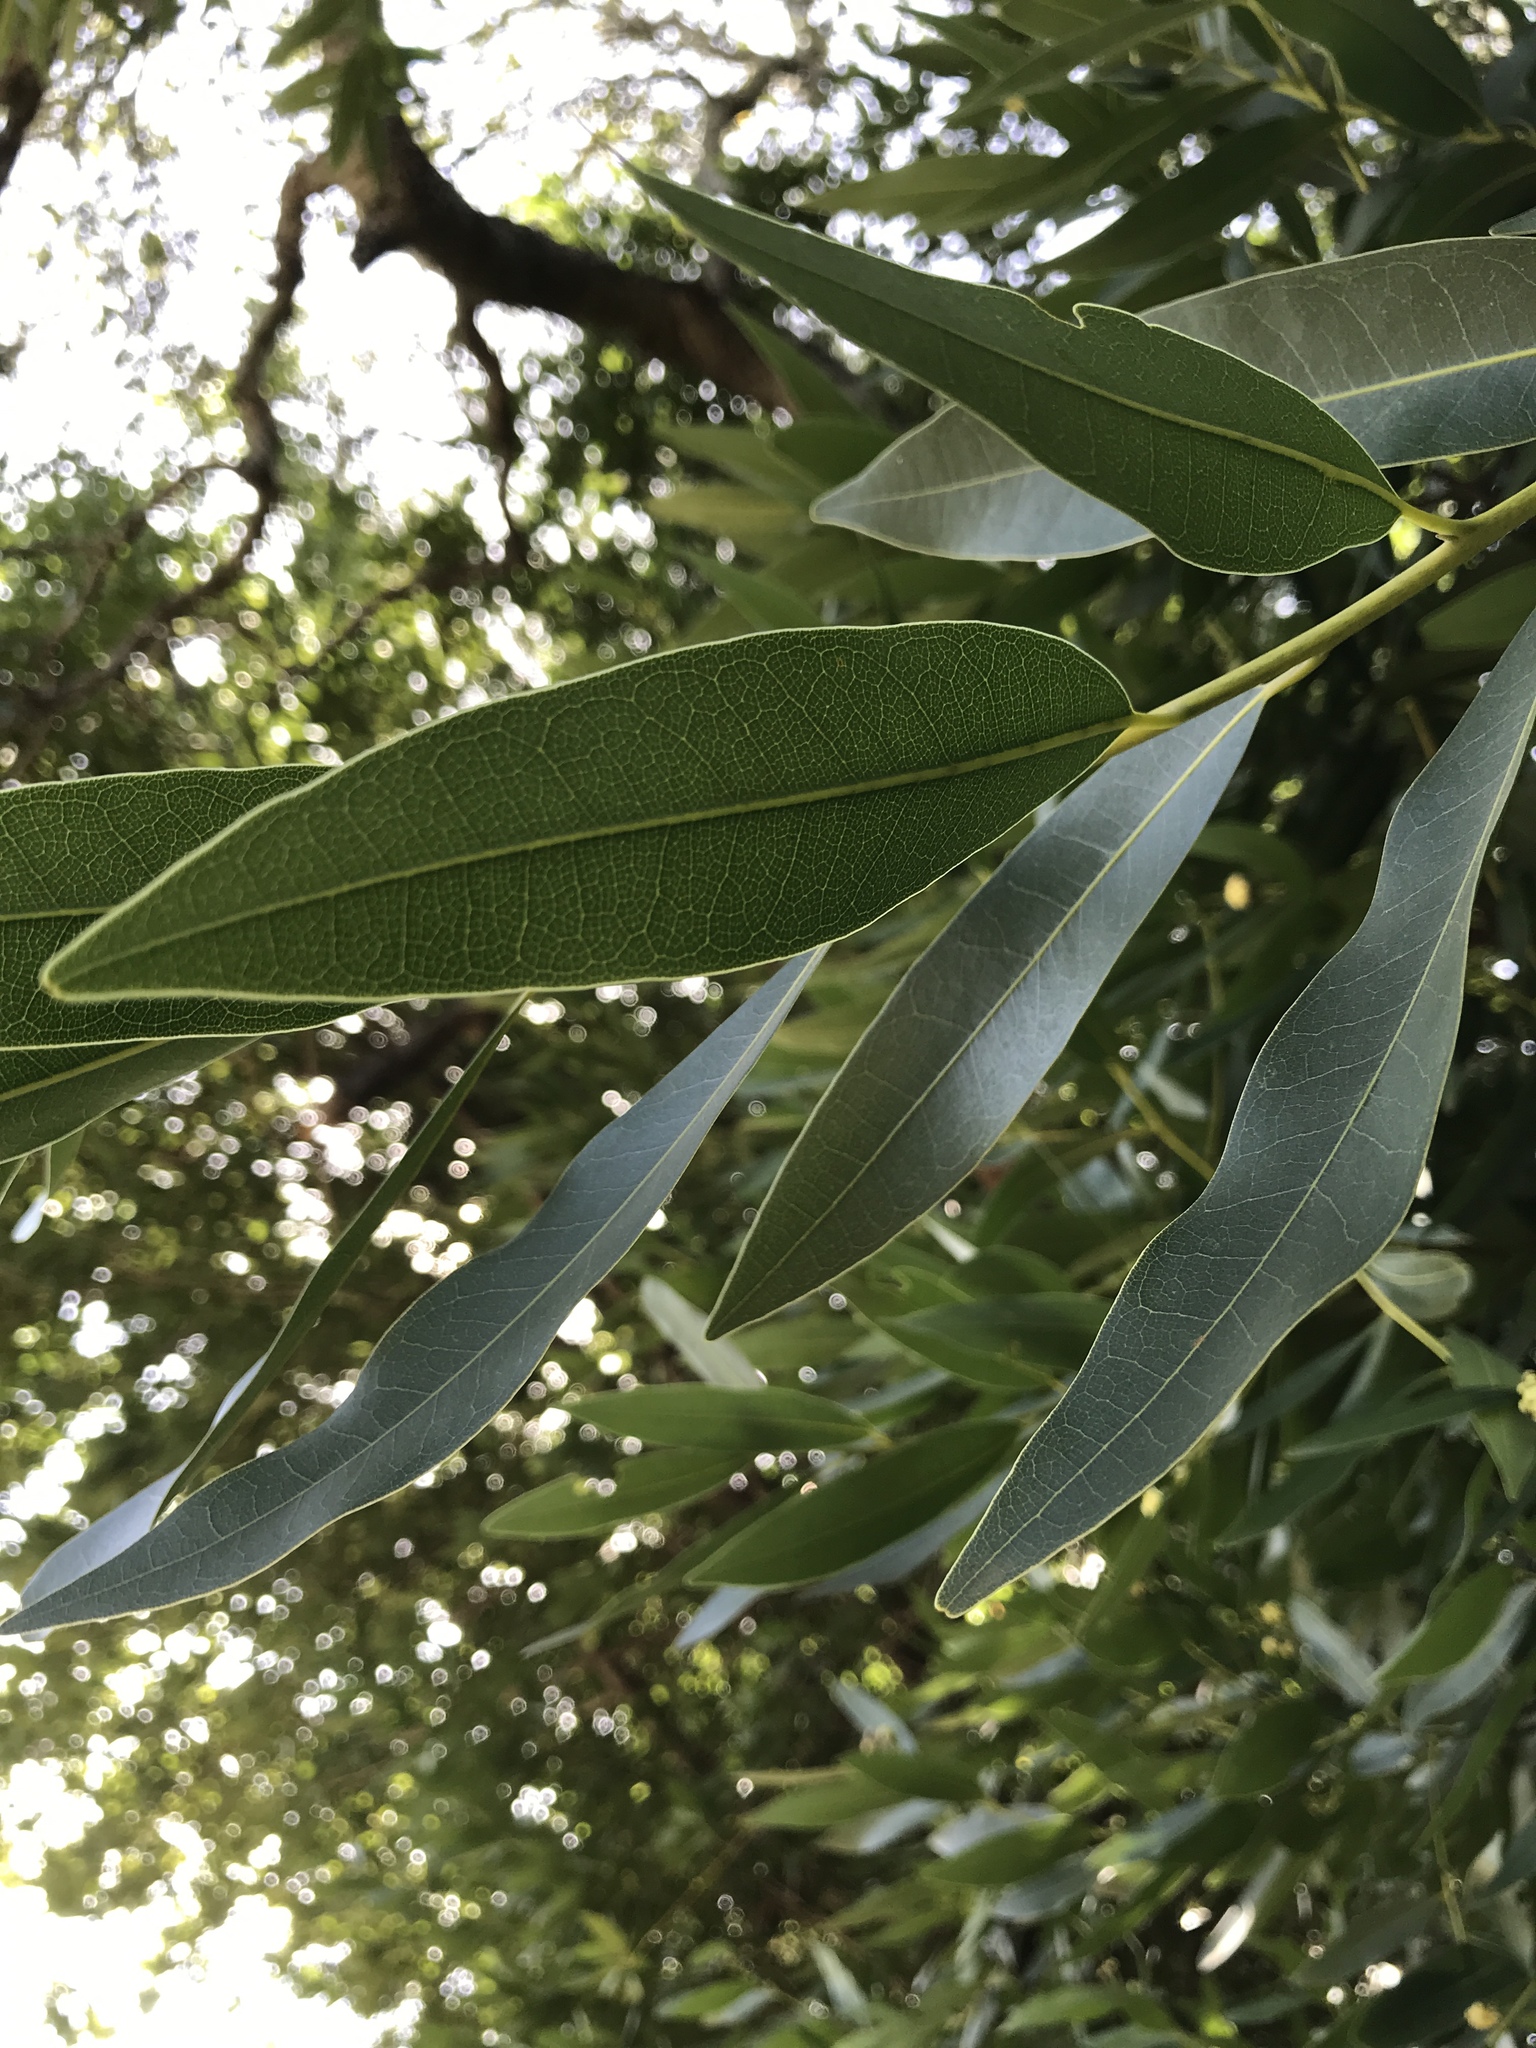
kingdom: Plantae
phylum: Tracheophyta
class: Magnoliopsida
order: Laurales
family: Lauraceae
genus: Umbellularia
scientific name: Umbellularia californica
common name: California bay
